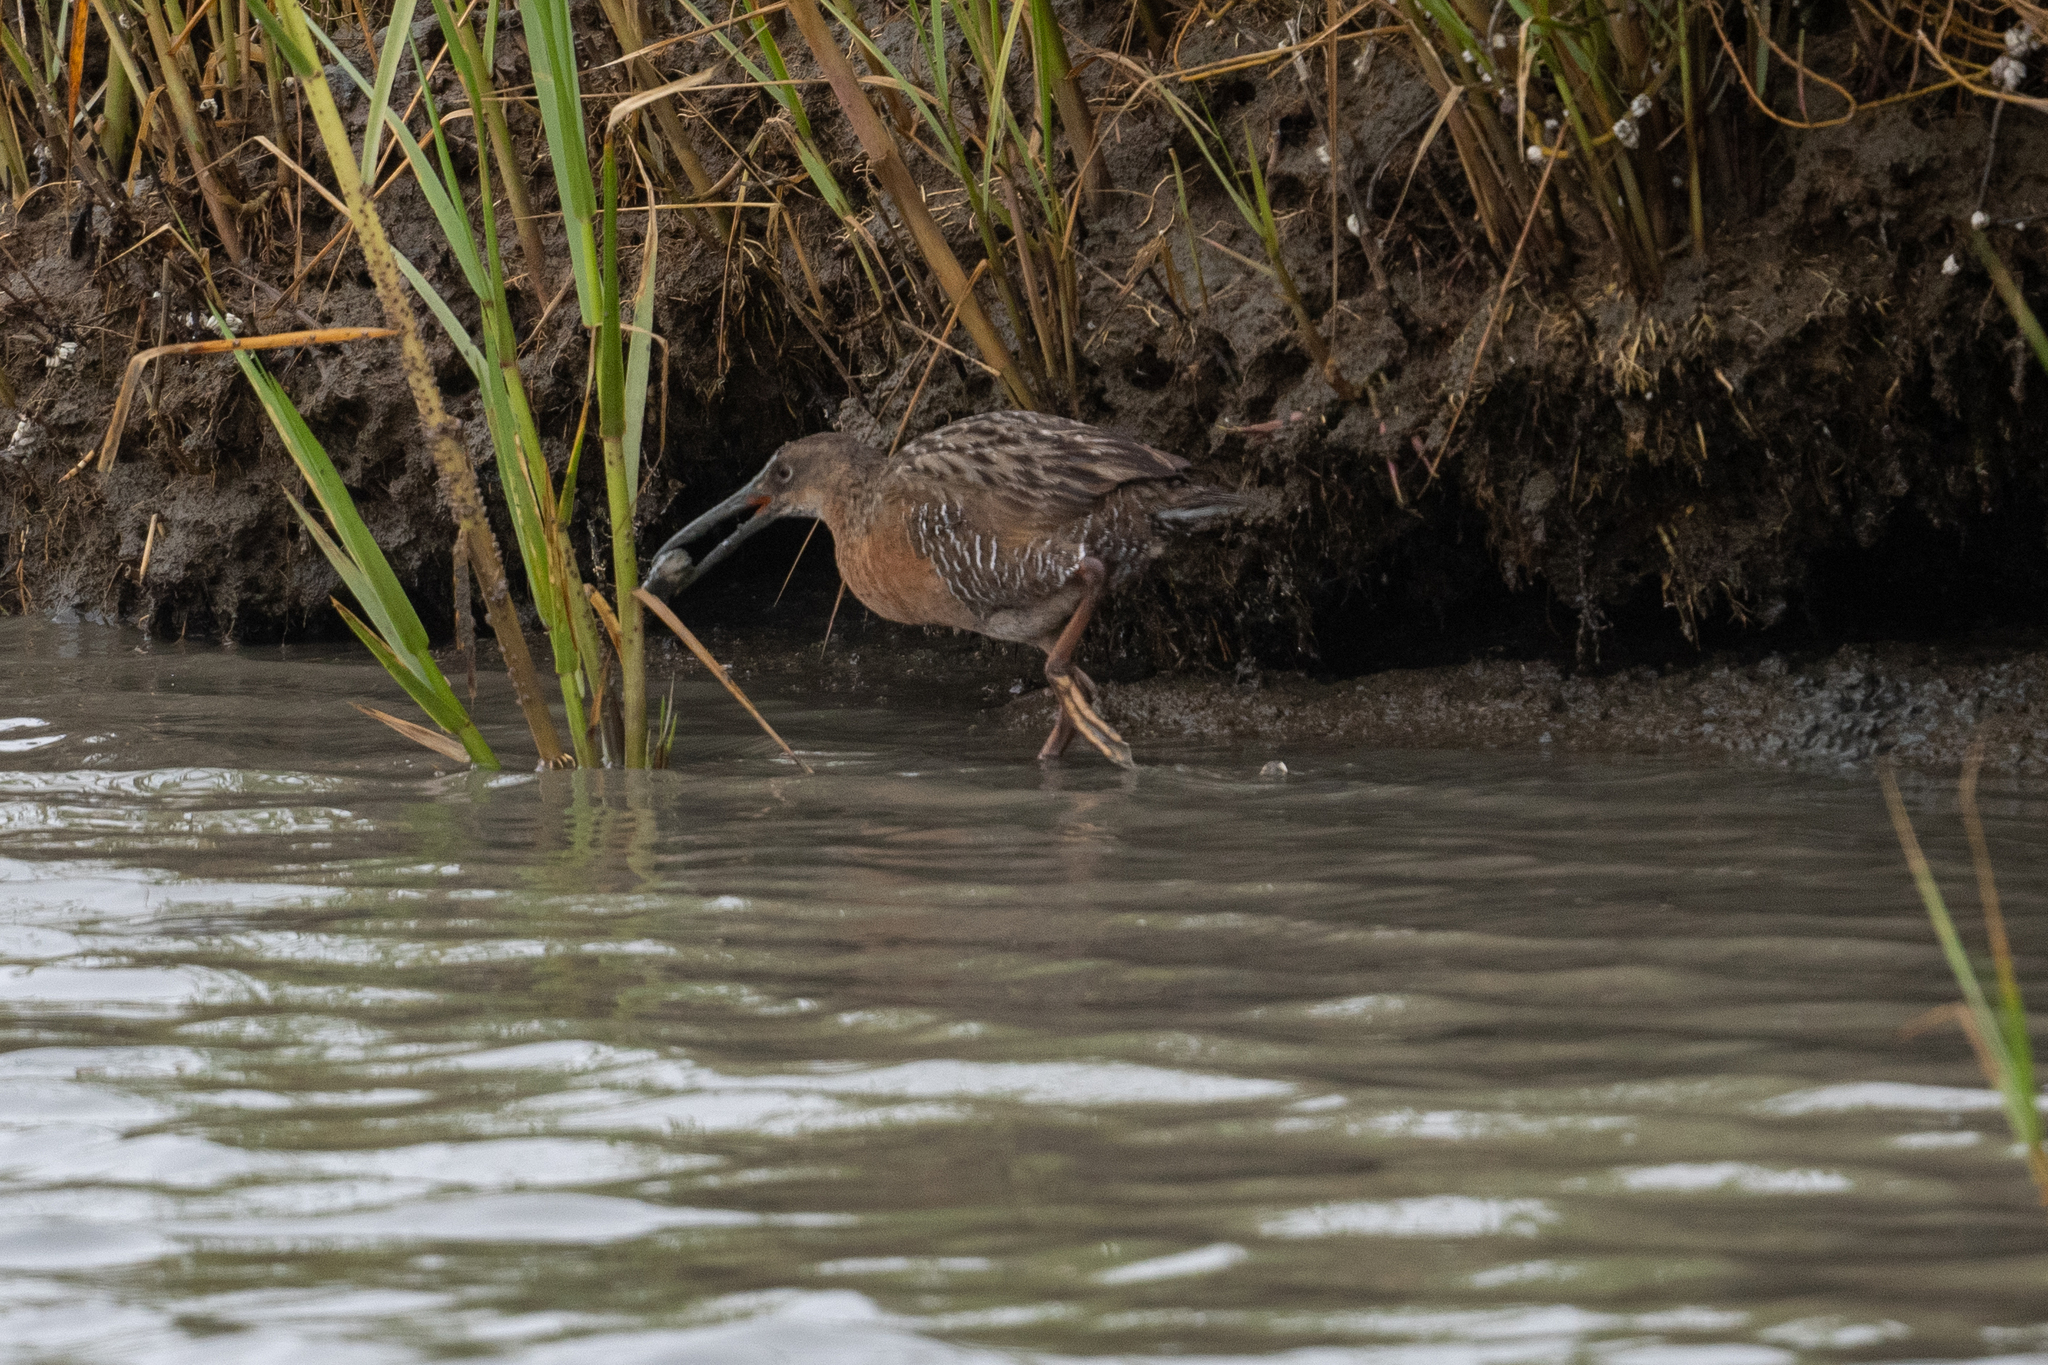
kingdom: Animalia
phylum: Chordata
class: Aves
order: Gruiformes
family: Rallidae
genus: Rallus
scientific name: Rallus obsoletus
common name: Ridgway's rail
